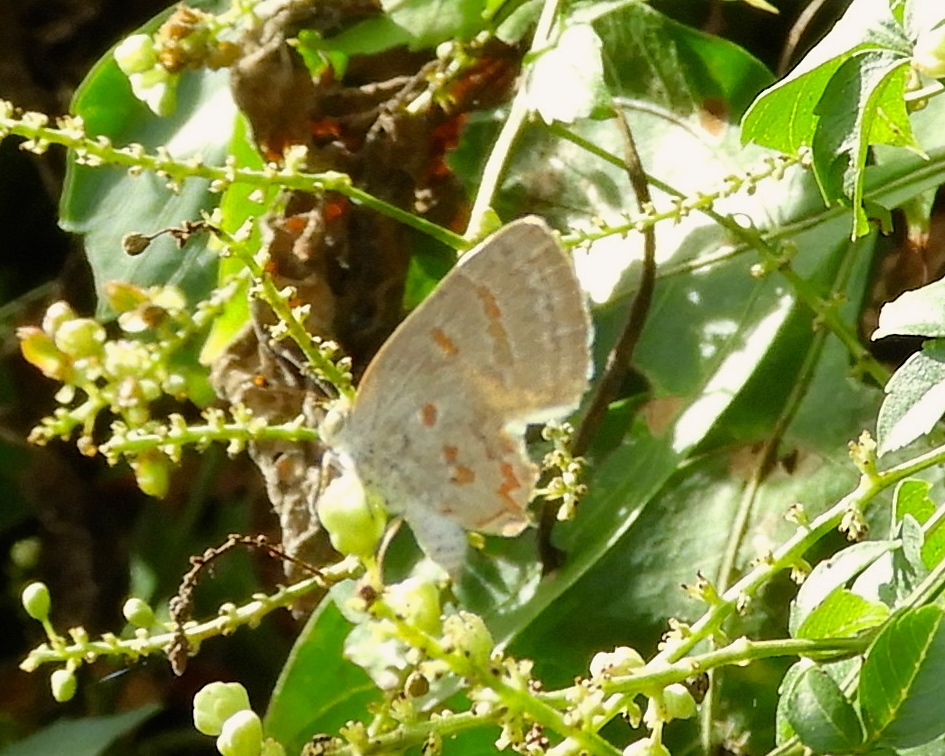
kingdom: Animalia
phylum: Arthropoda
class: Insecta
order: Lepidoptera
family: Lycaenidae
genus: Ministrymon
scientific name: Ministrymon clytie
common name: Clytie ministreak
